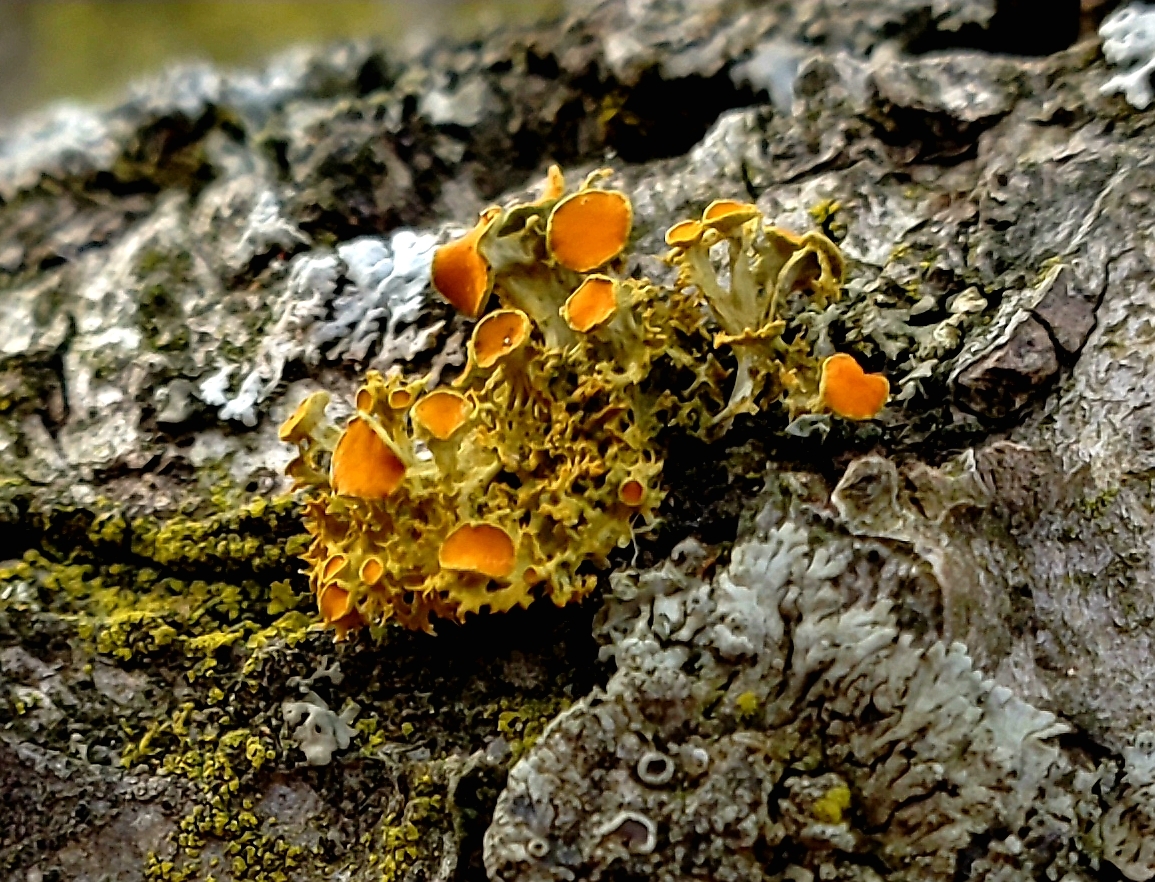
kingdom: Fungi
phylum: Ascomycota
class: Lecanoromycetes
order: Teloschistales
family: Teloschistaceae
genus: Niorma
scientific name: Niorma chrysophthalma
